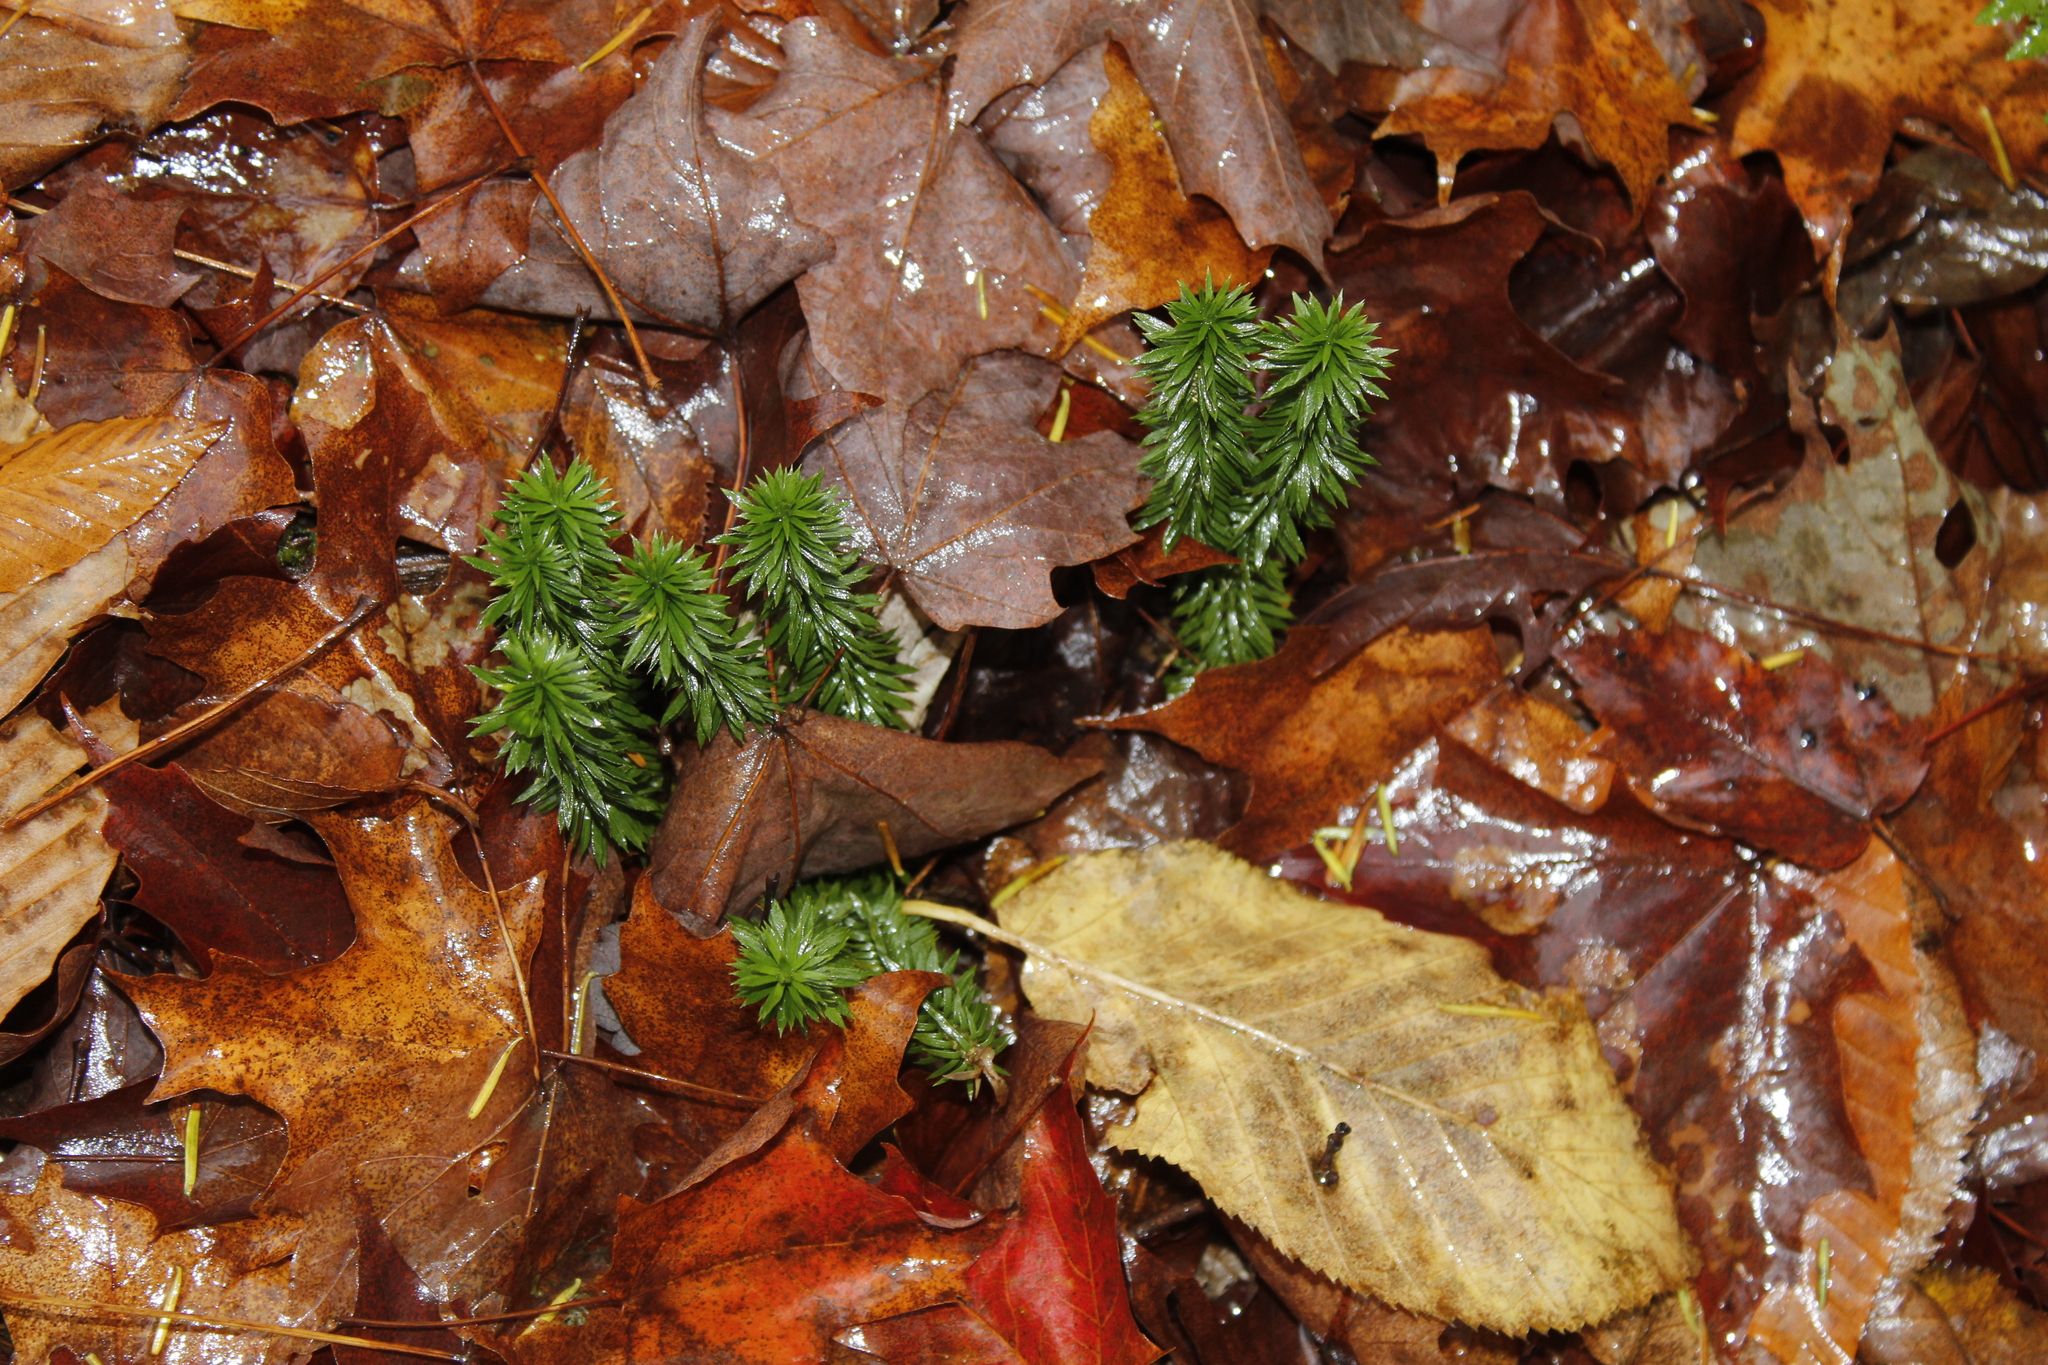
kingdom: Plantae
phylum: Tracheophyta
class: Lycopodiopsida
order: Lycopodiales
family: Lycopodiaceae
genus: Huperzia
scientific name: Huperzia lucidula
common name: Shining clubmoss
